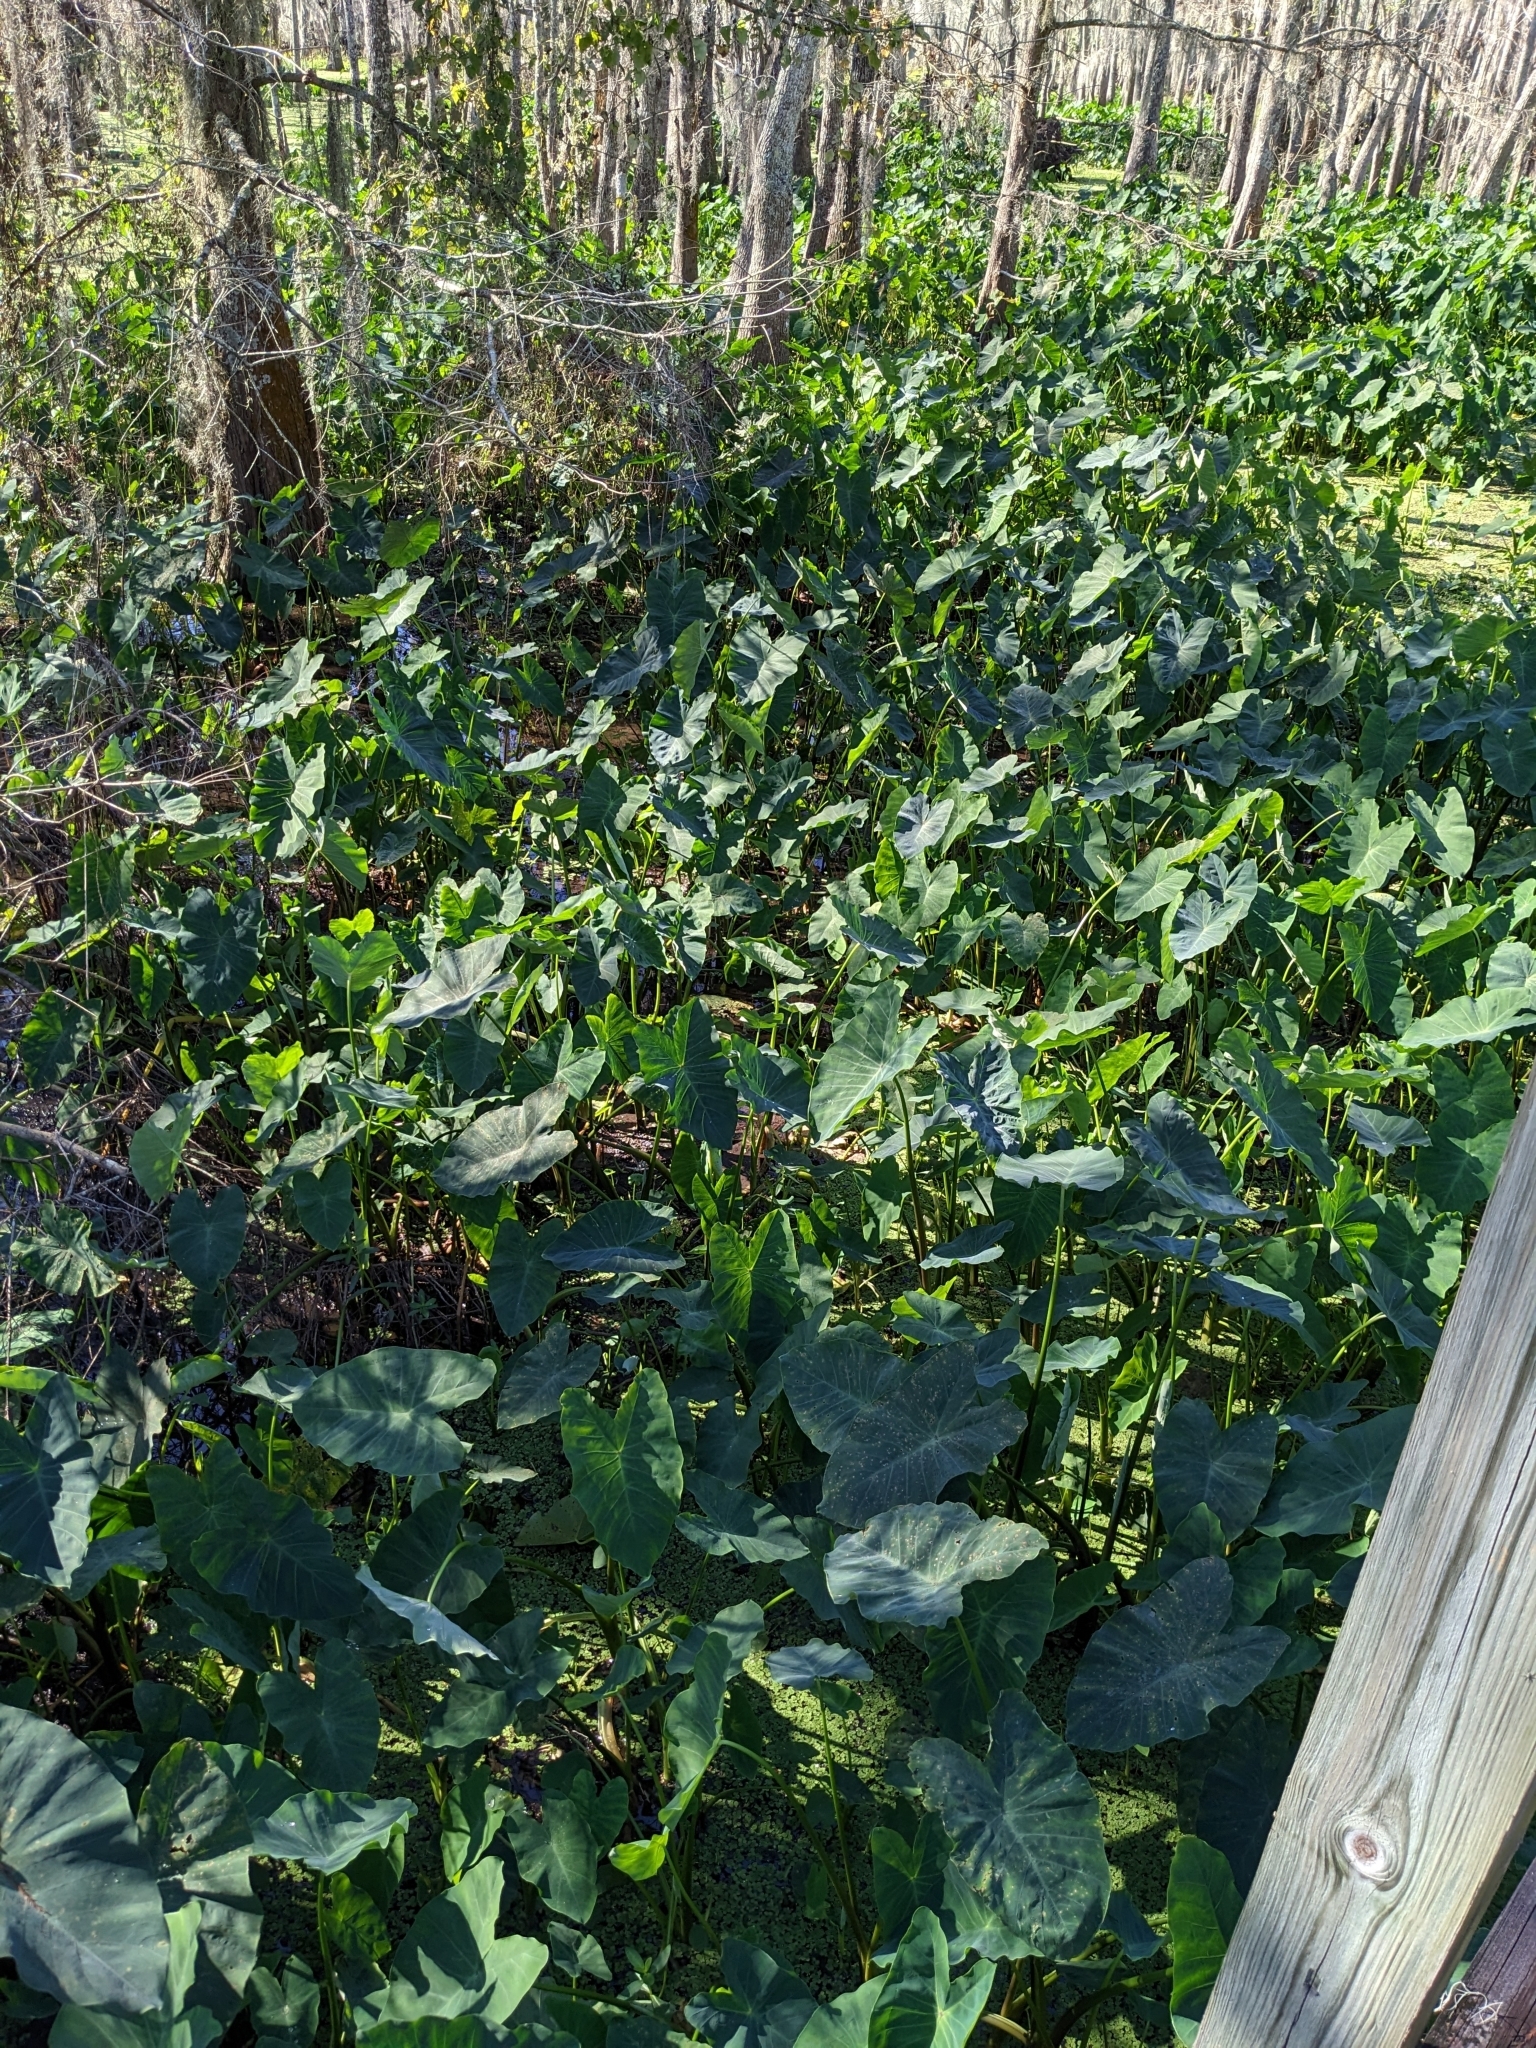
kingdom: Plantae
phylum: Tracheophyta
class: Liliopsida
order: Alismatales
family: Araceae
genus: Colocasia
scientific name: Colocasia esculenta
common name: Taro
